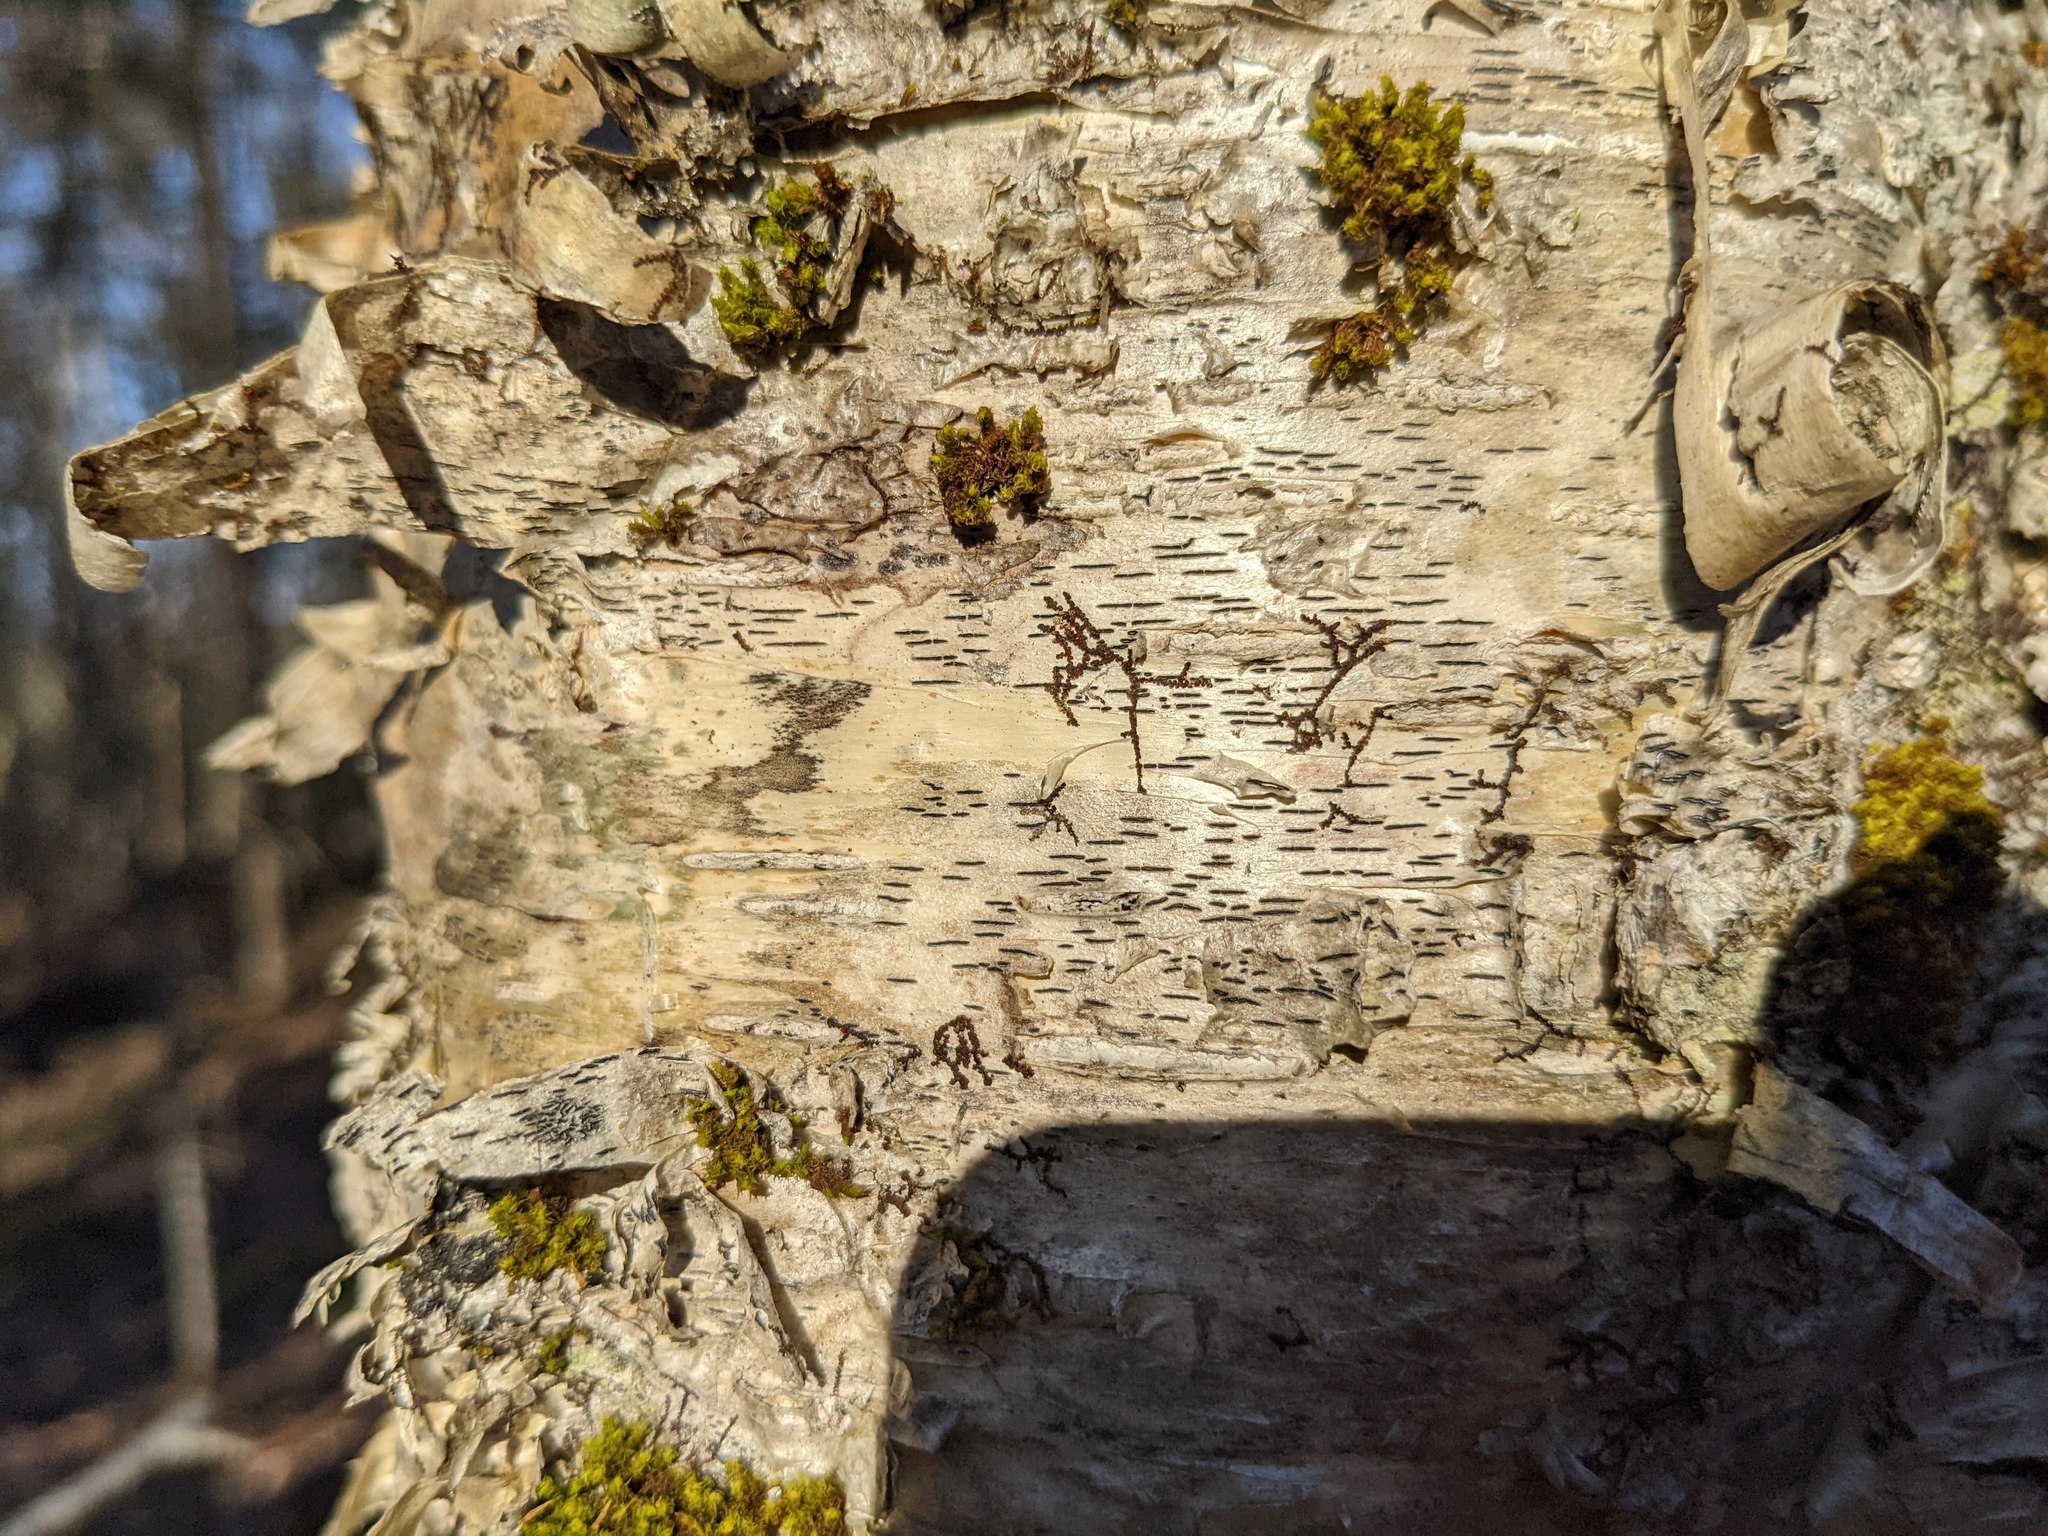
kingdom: Plantae
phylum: Bryophyta
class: Bryopsida
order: Orthotrichales
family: Orthotrichaceae
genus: Ulota
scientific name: Ulota crispa
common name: Crisped pincushion moss
